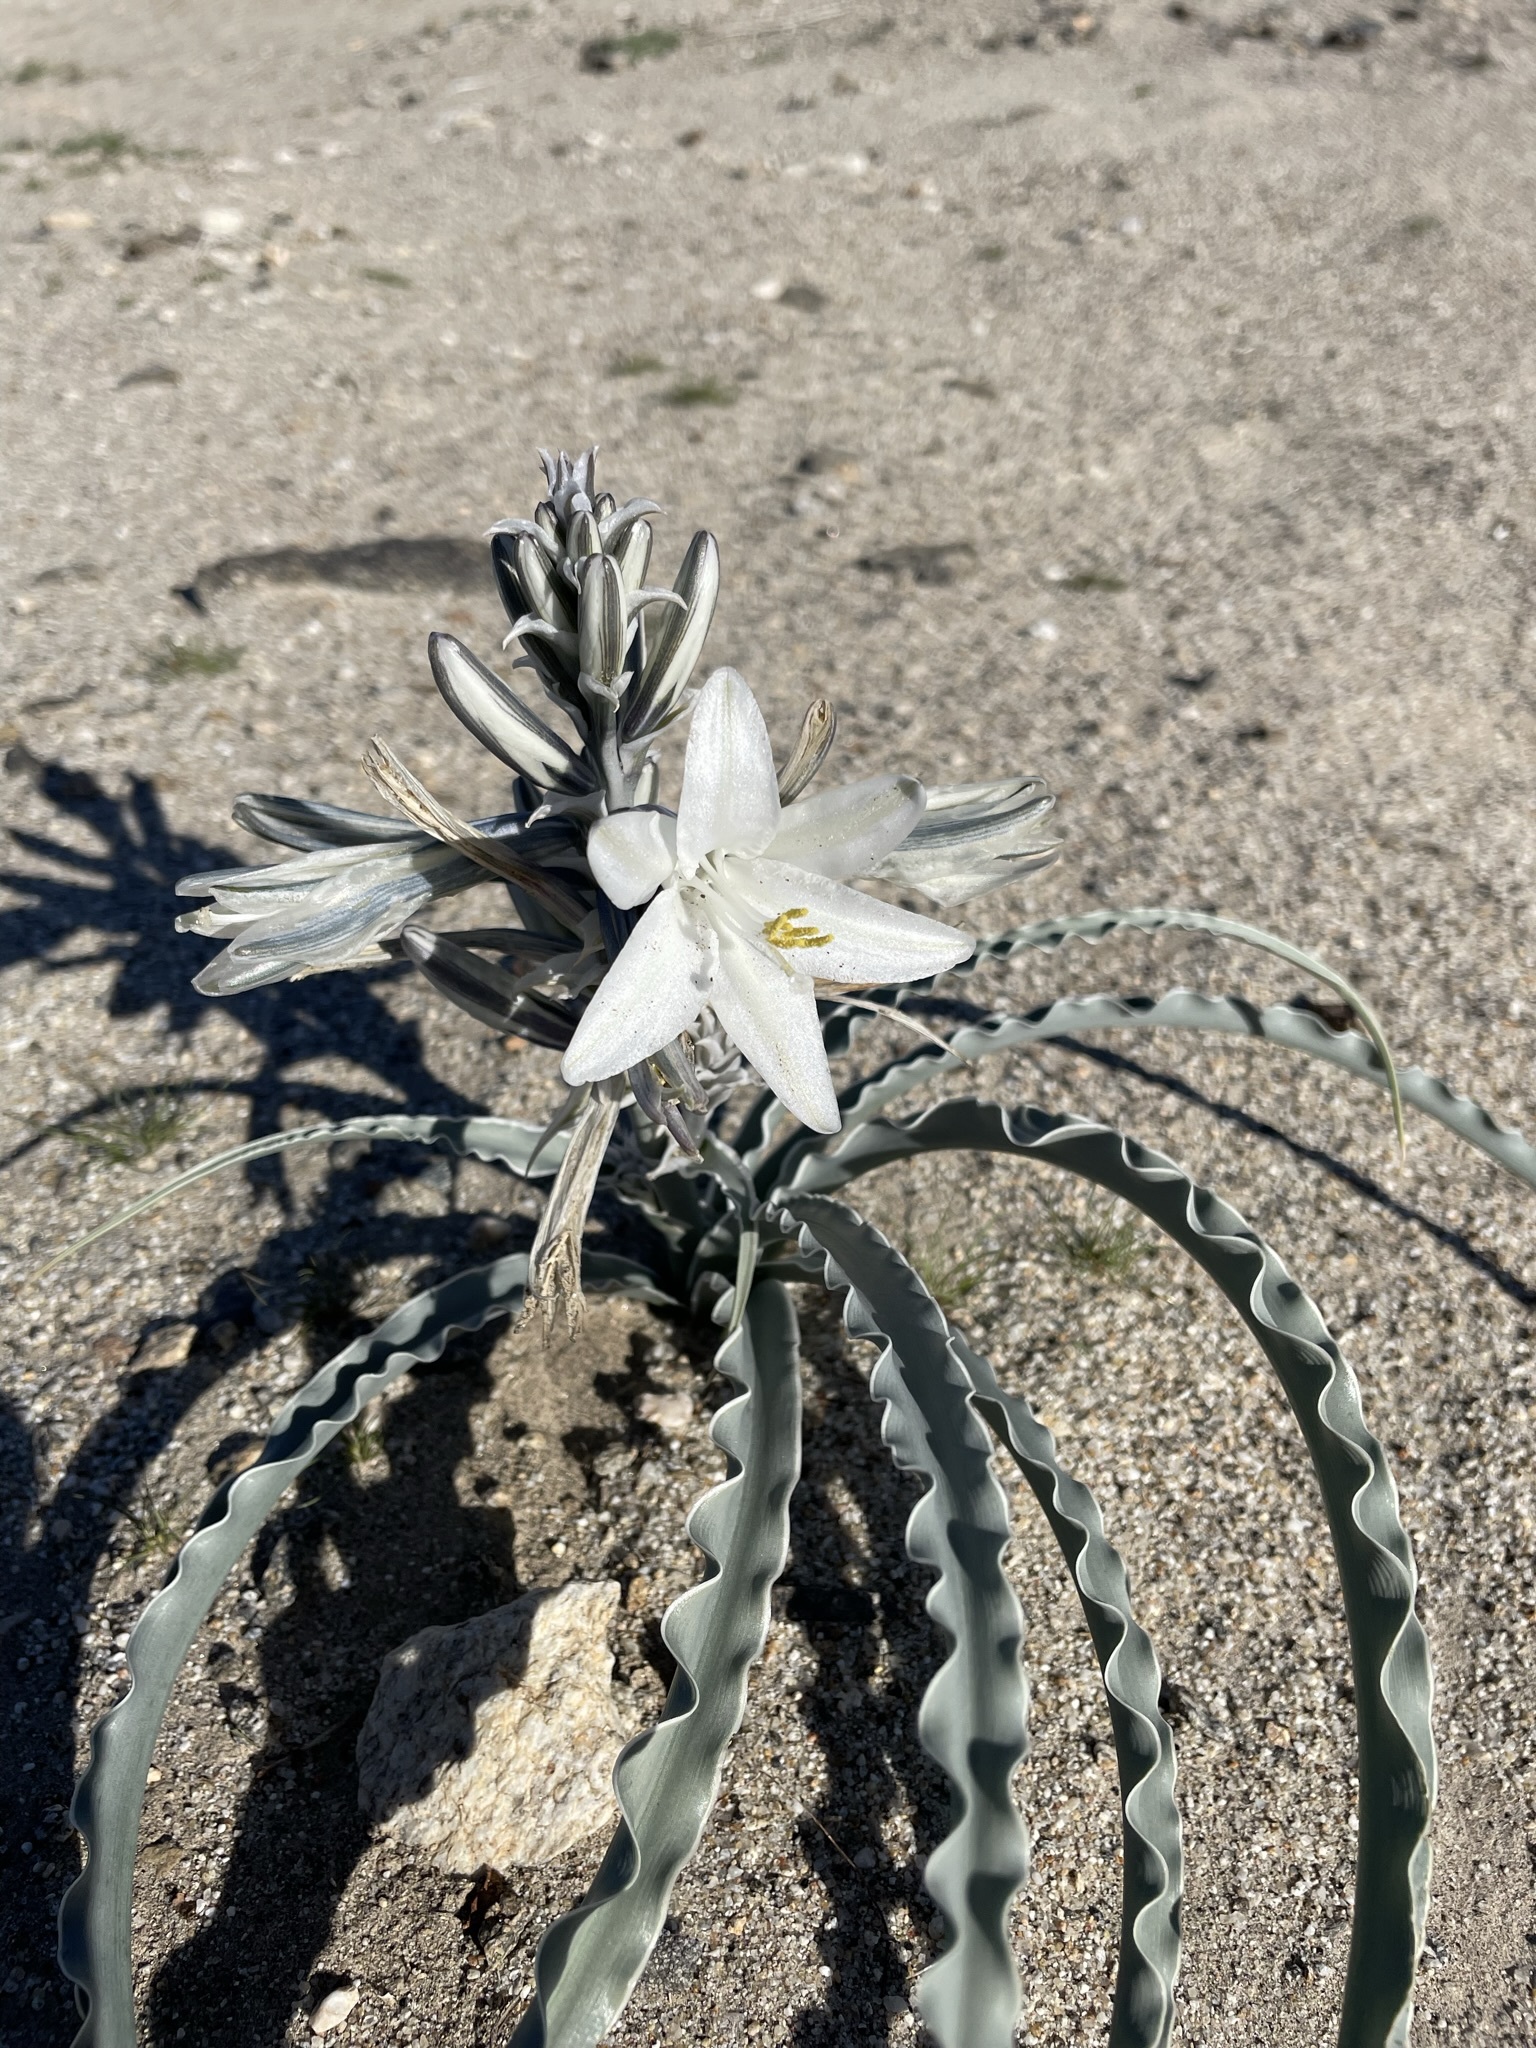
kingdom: Plantae
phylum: Tracheophyta
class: Liliopsida
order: Asparagales
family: Asparagaceae
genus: Hesperocallis
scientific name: Hesperocallis undulata
